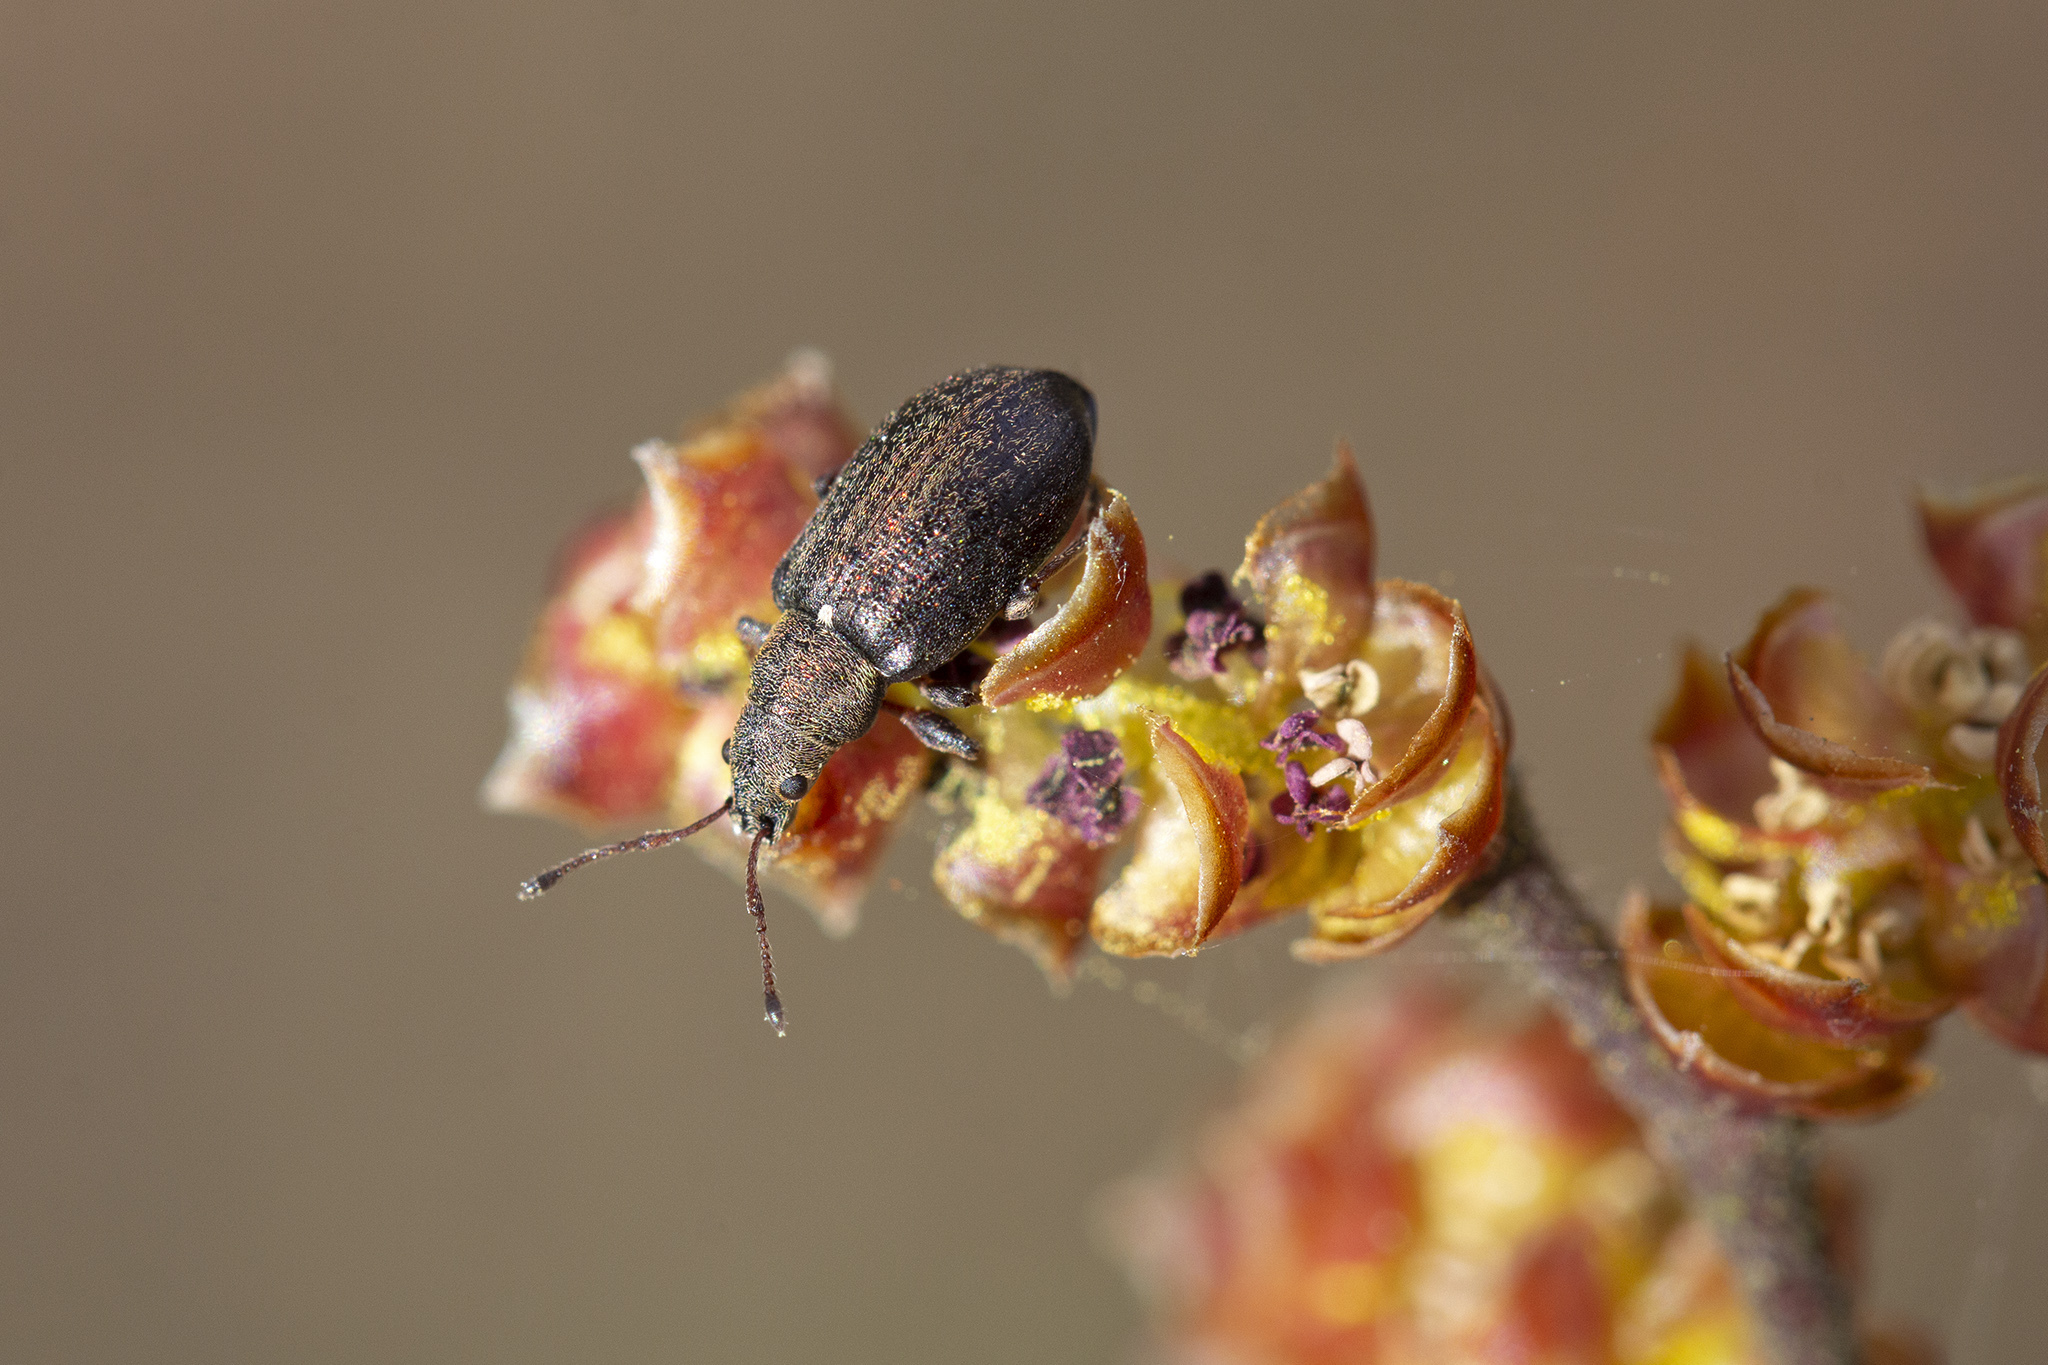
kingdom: Animalia
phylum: Arthropoda
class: Insecta
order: Coleoptera
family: Curculionidae
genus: Phyllobius
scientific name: Phyllobius pyri
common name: Common leaf weevil
